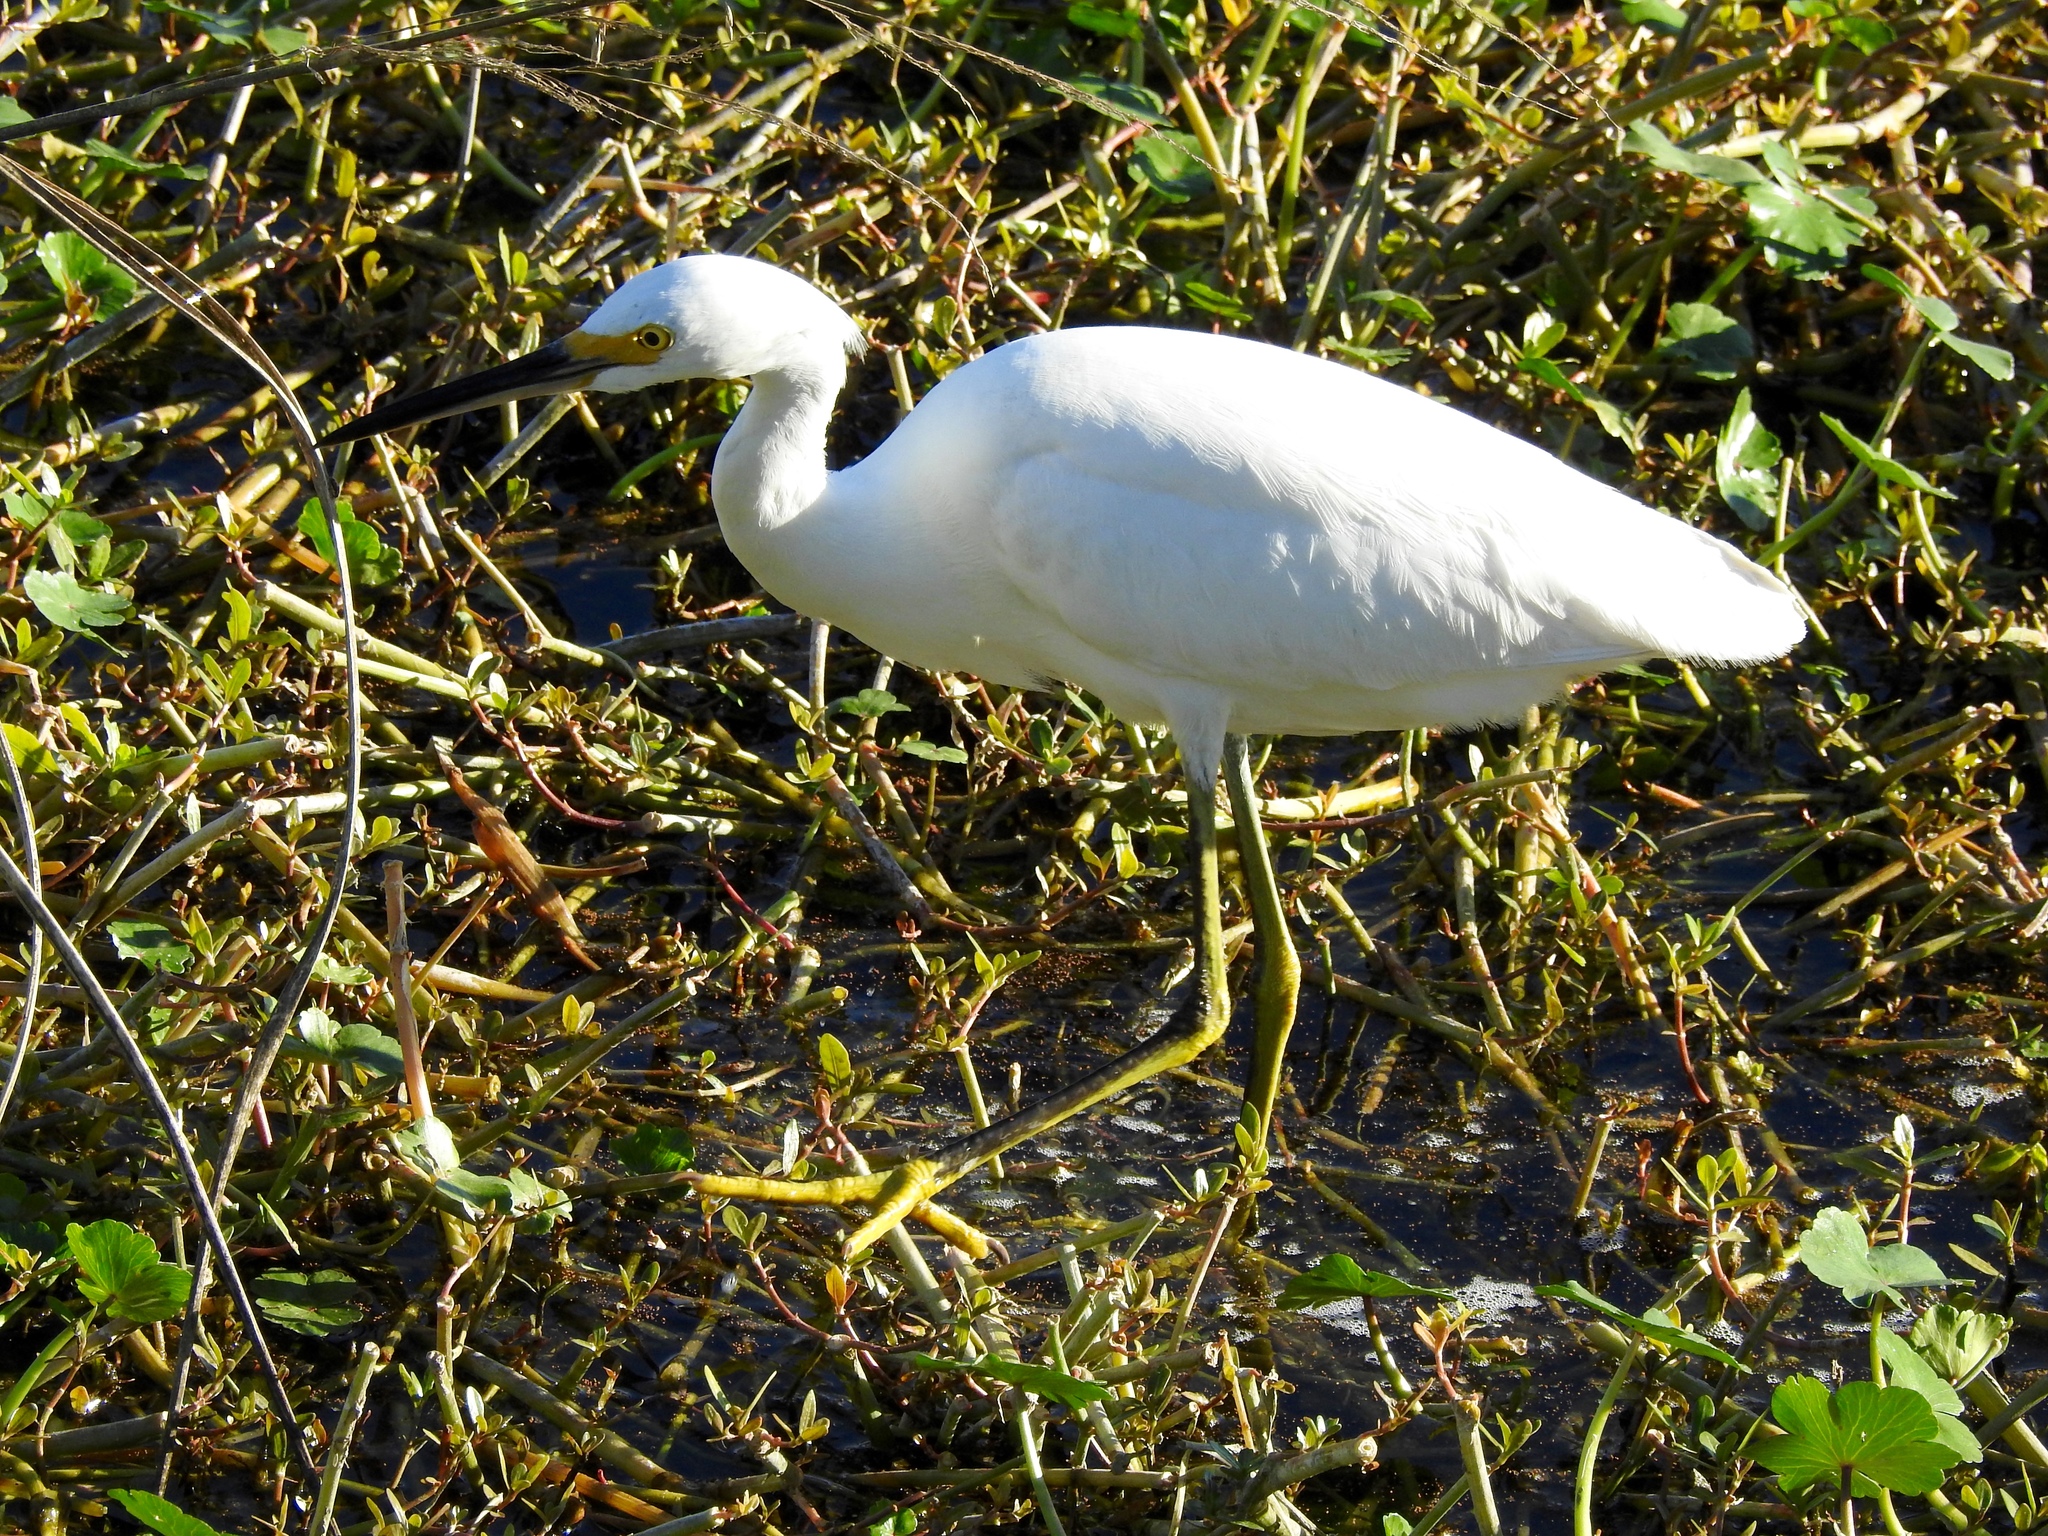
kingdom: Animalia
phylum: Chordata
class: Aves
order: Pelecaniformes
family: Ardeidae
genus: Egretta
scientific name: Egretta thula
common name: Snowy egret
